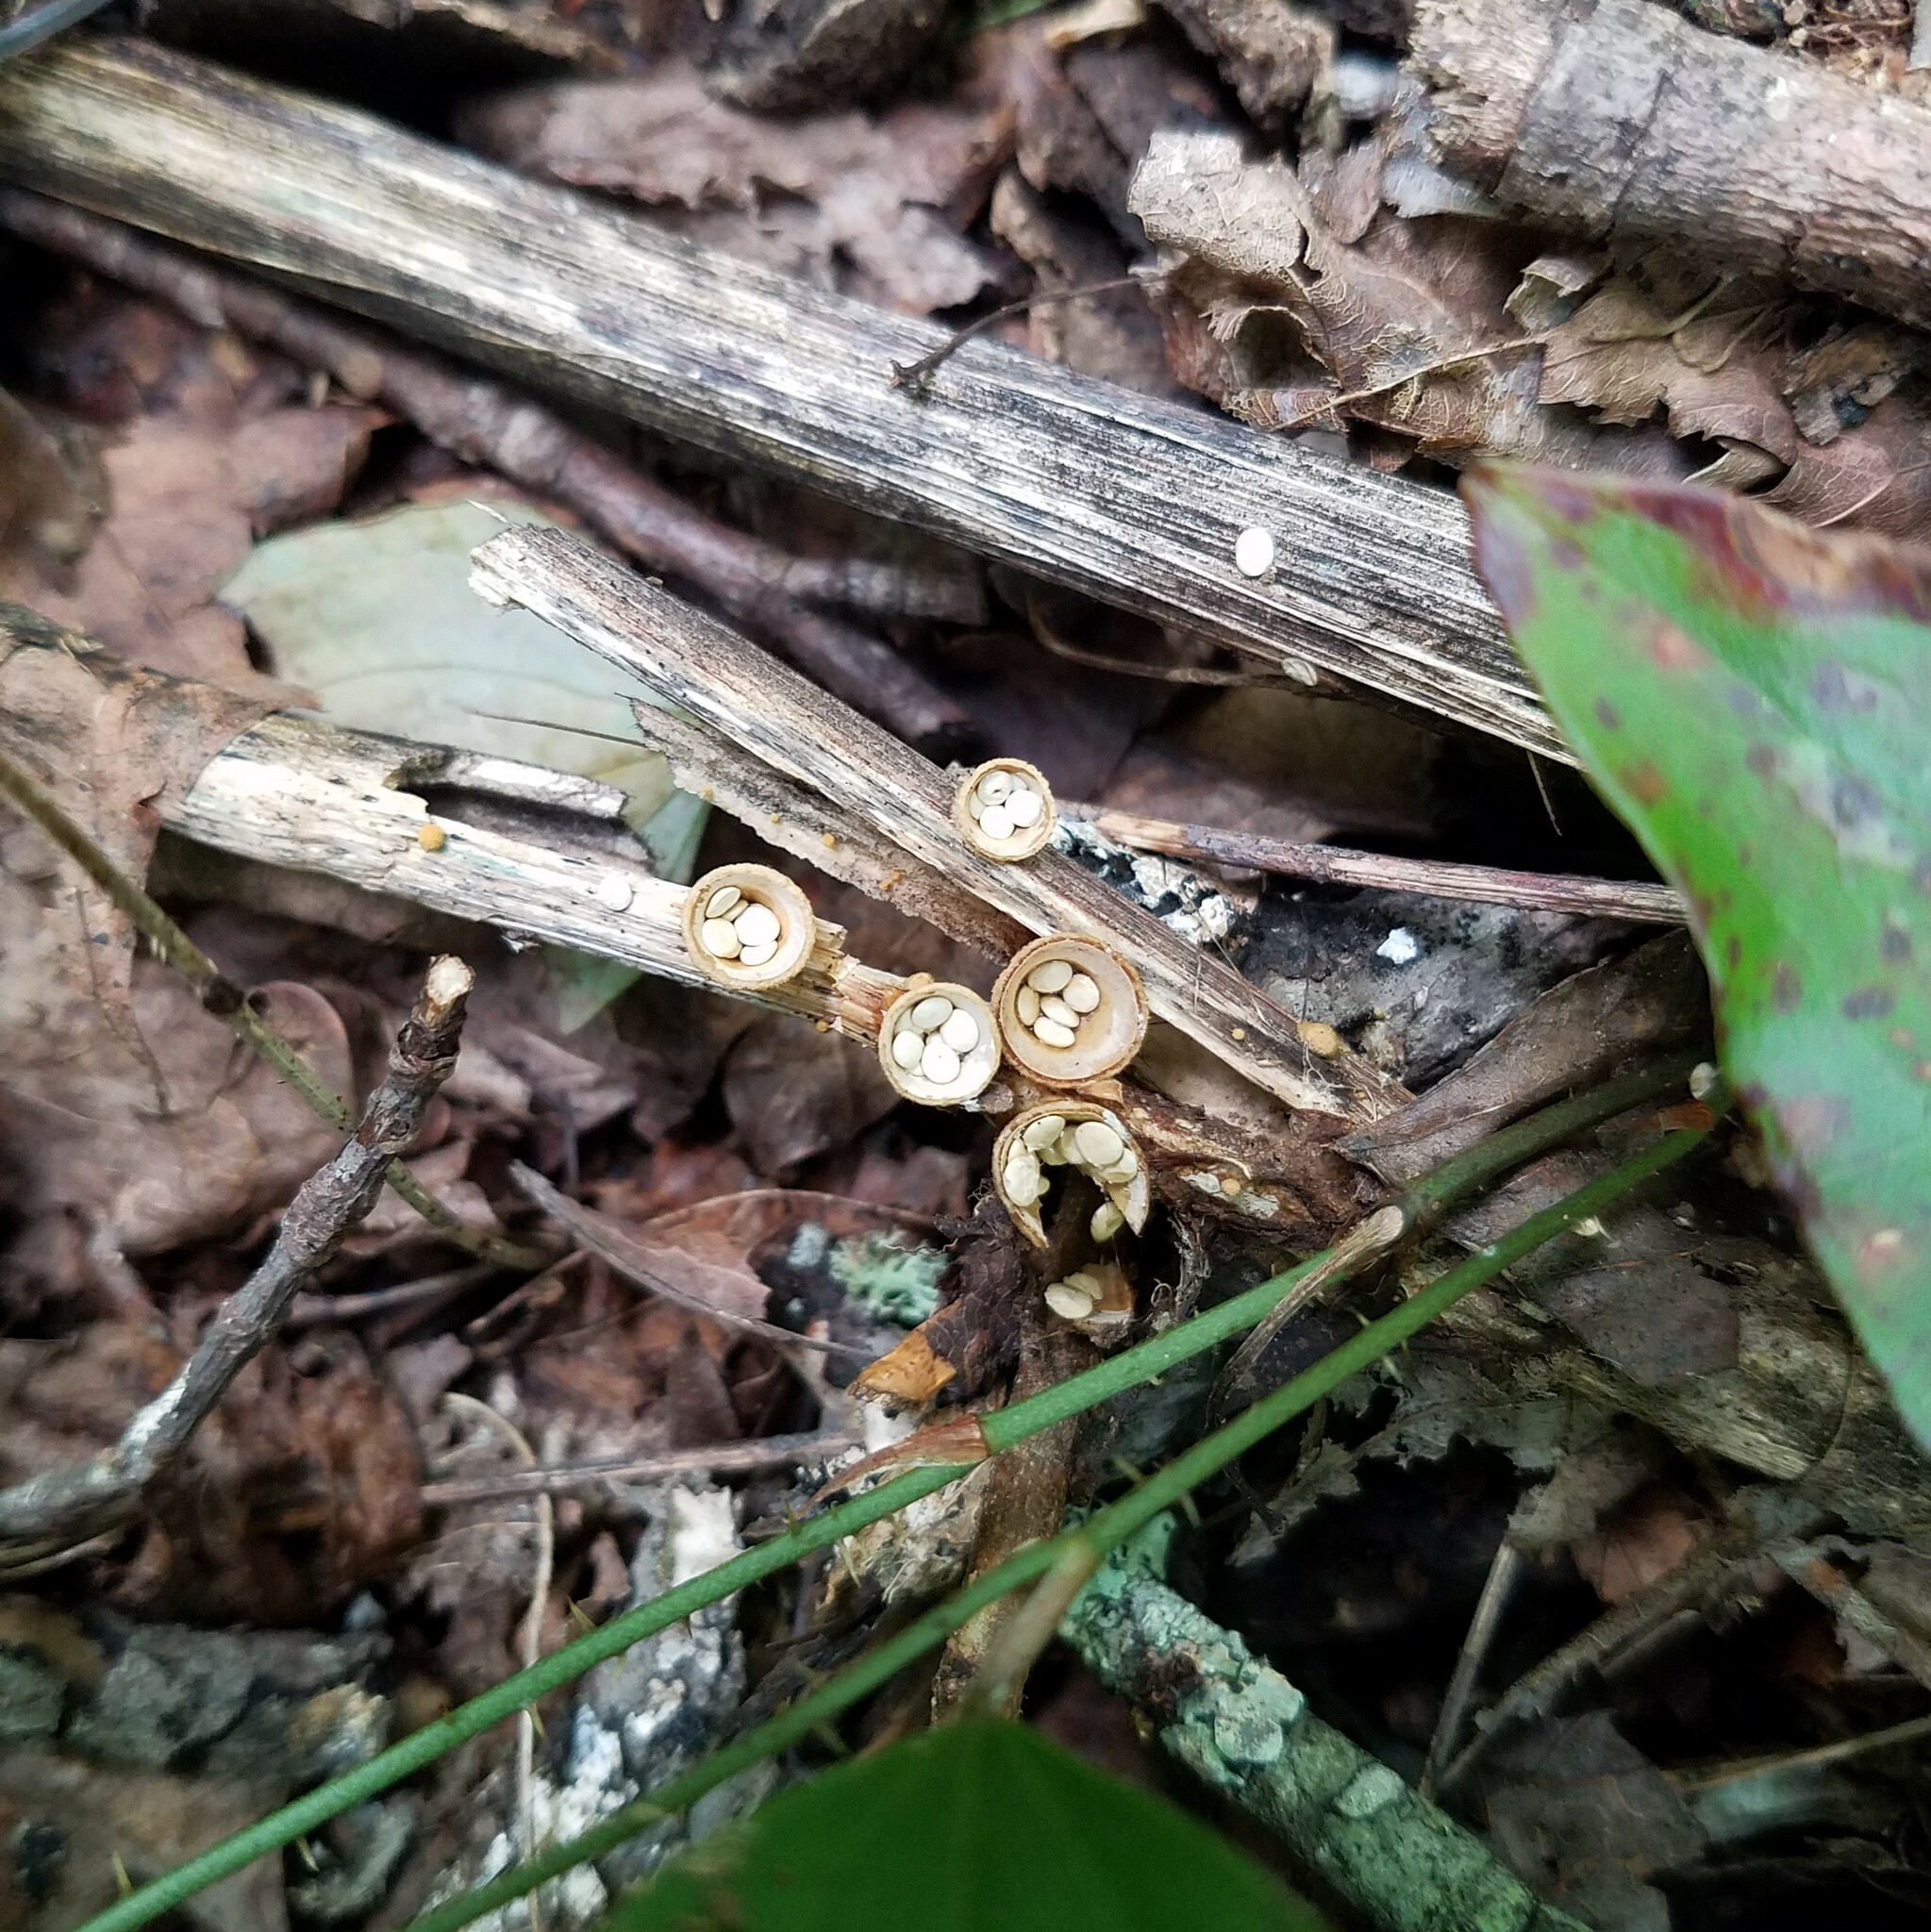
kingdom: Fungi
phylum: Basidiomycota
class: Agaricomycetes
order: Agaricales
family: Nidulariaceae
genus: Crucibulum
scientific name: Crucibulum laeve
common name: Common bird's nest
